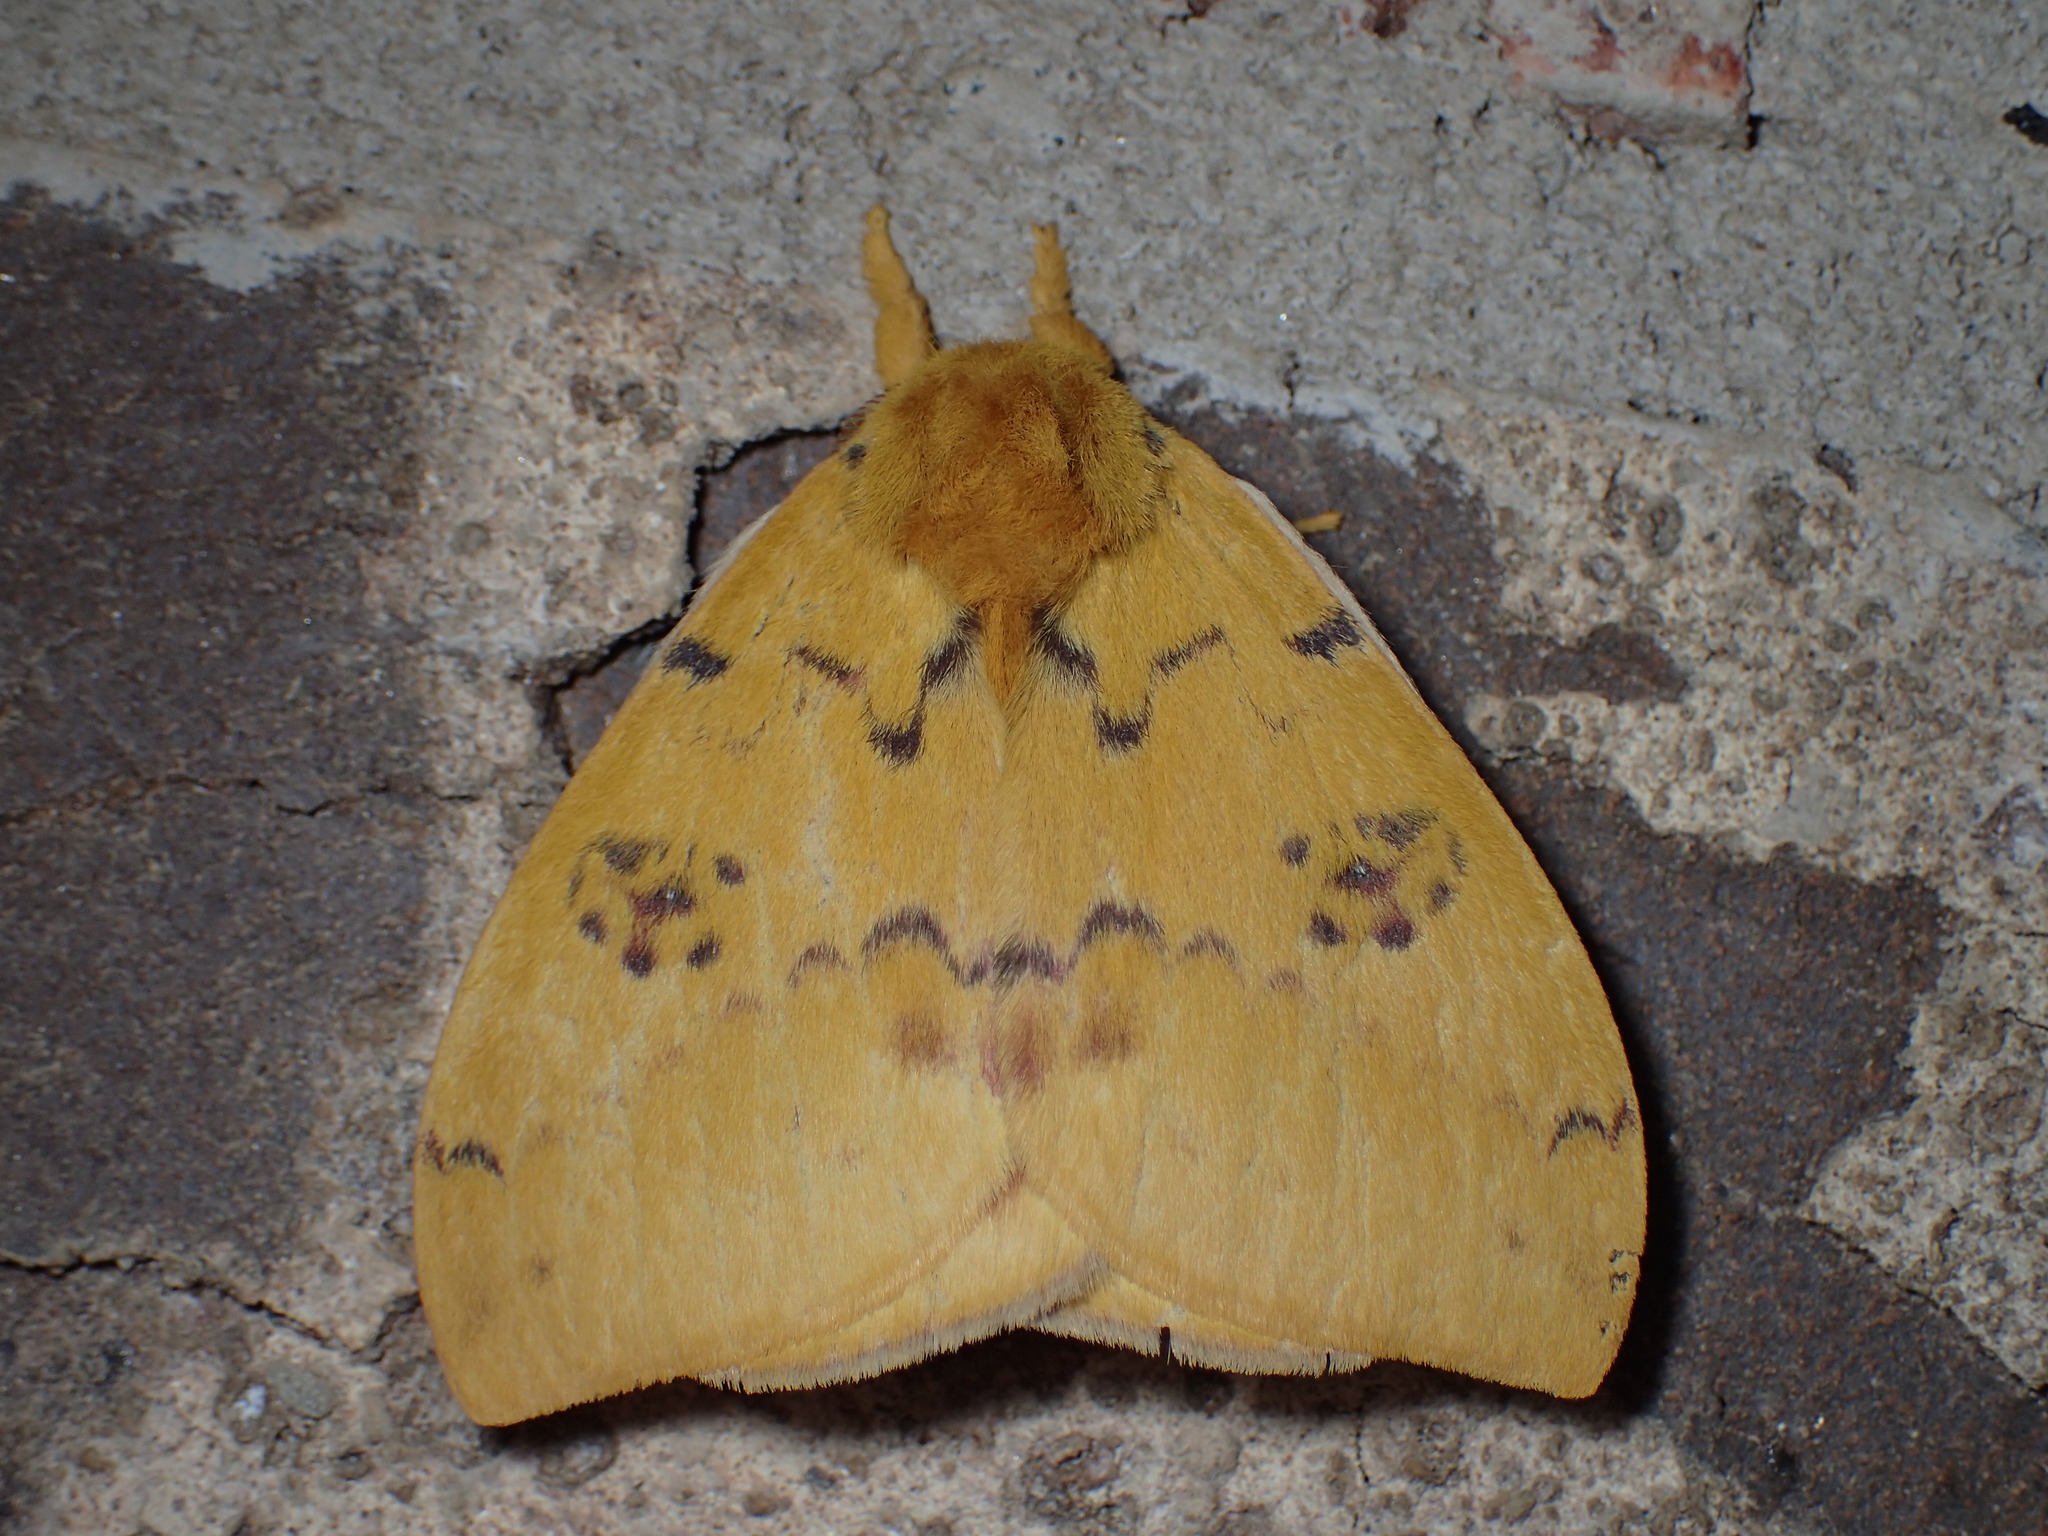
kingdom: Animalia
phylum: Arthropoda
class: Insecta
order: Lepidoptera
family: Saturniidae
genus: Automeris
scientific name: Automeris io
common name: Io moth
